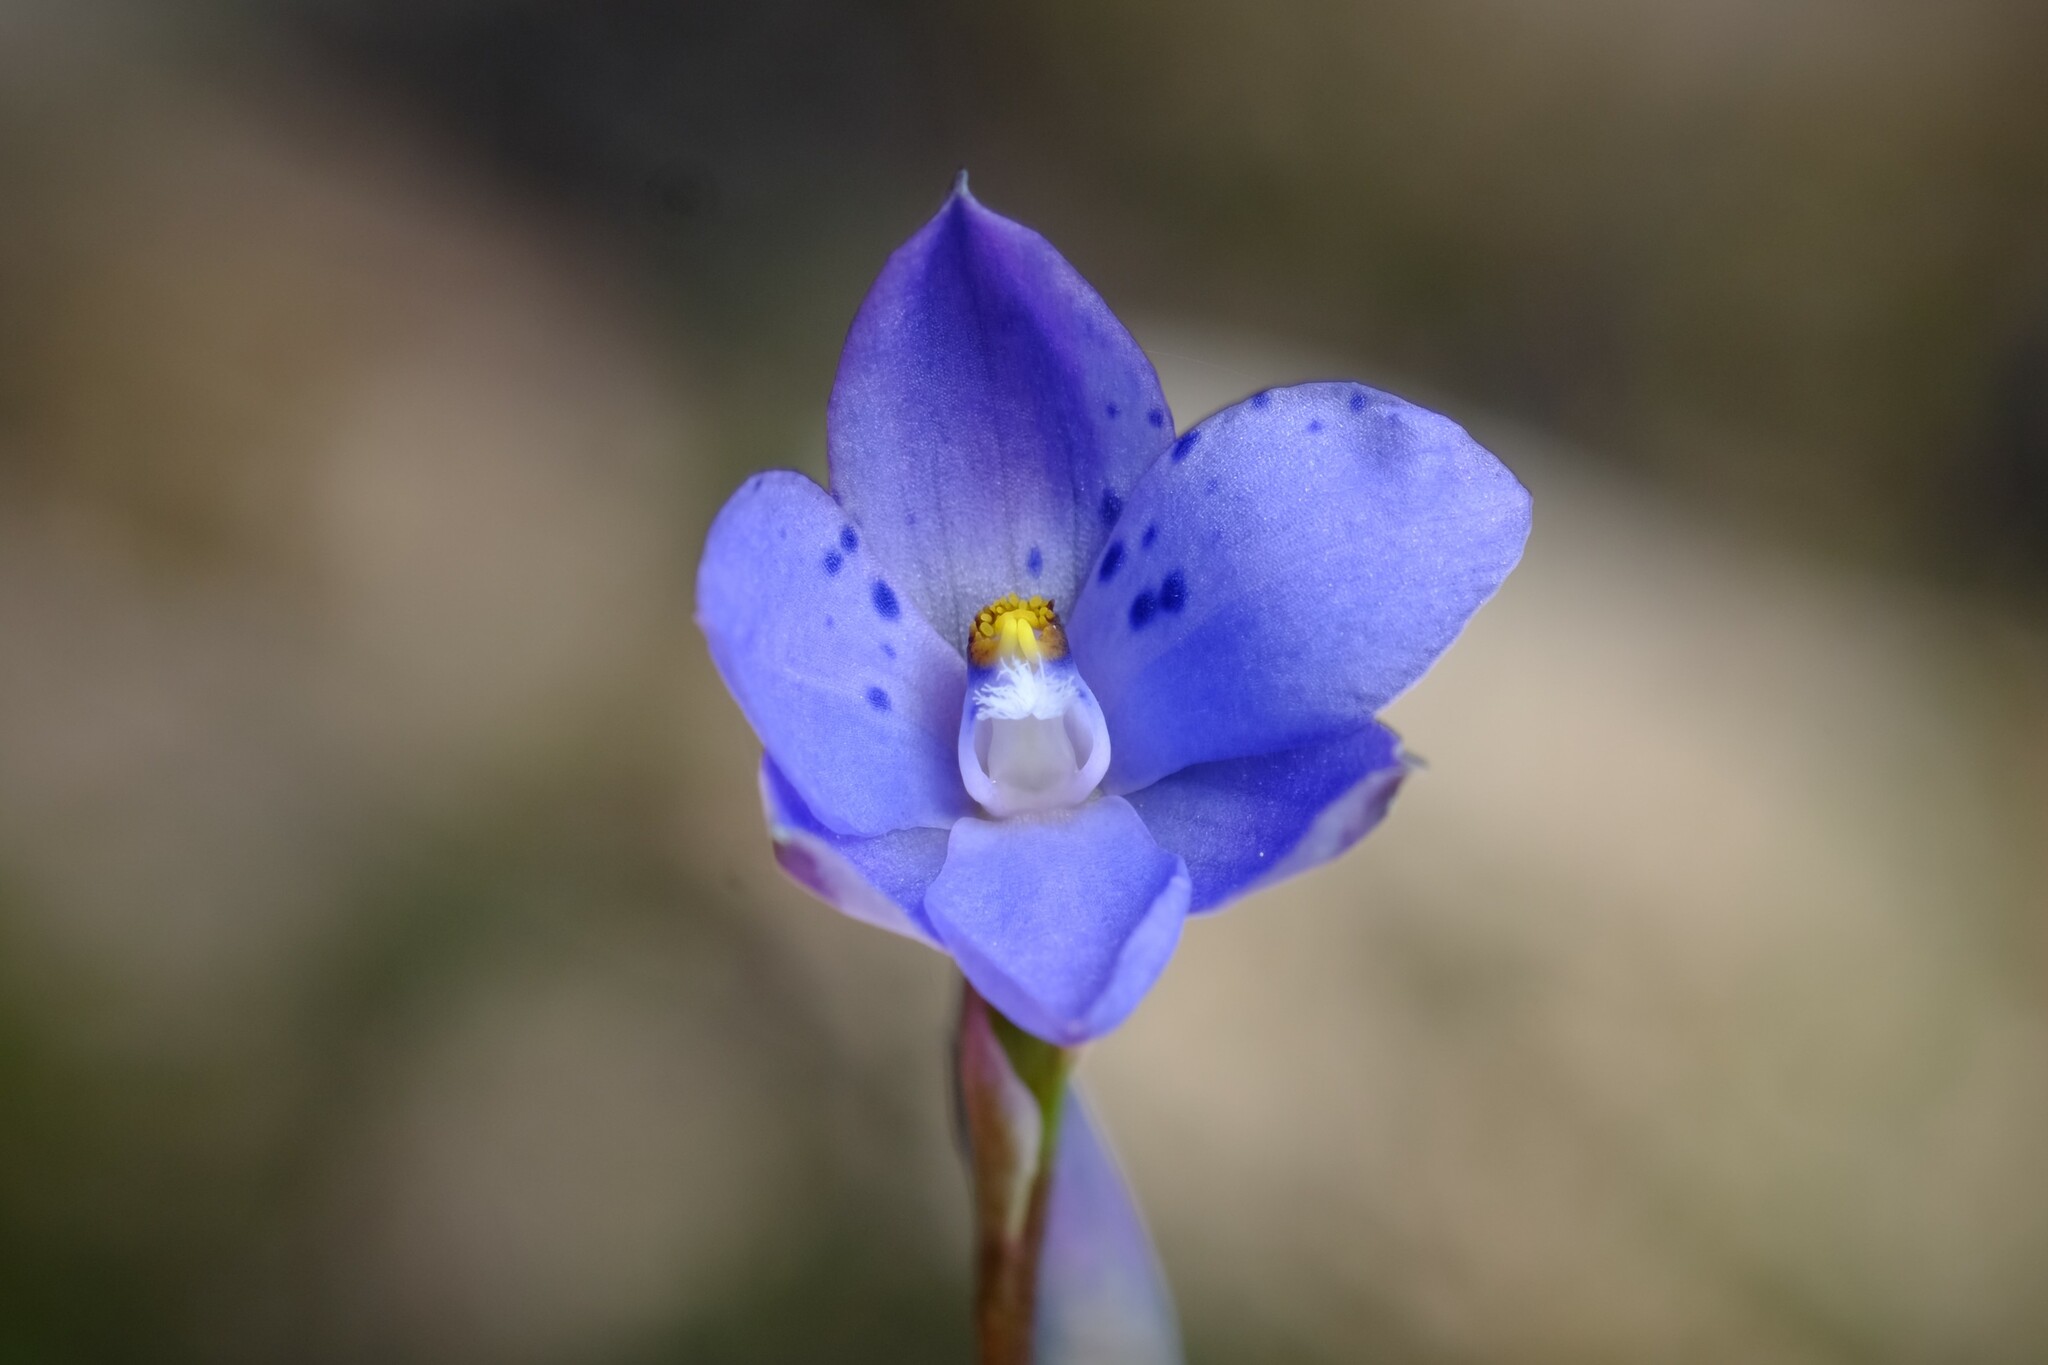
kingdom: Plantae
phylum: Tracheophyta
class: Liliopsida
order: Asparagales
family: Orchidaceae
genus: Thelymitra
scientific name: Thelymitra ixioides
